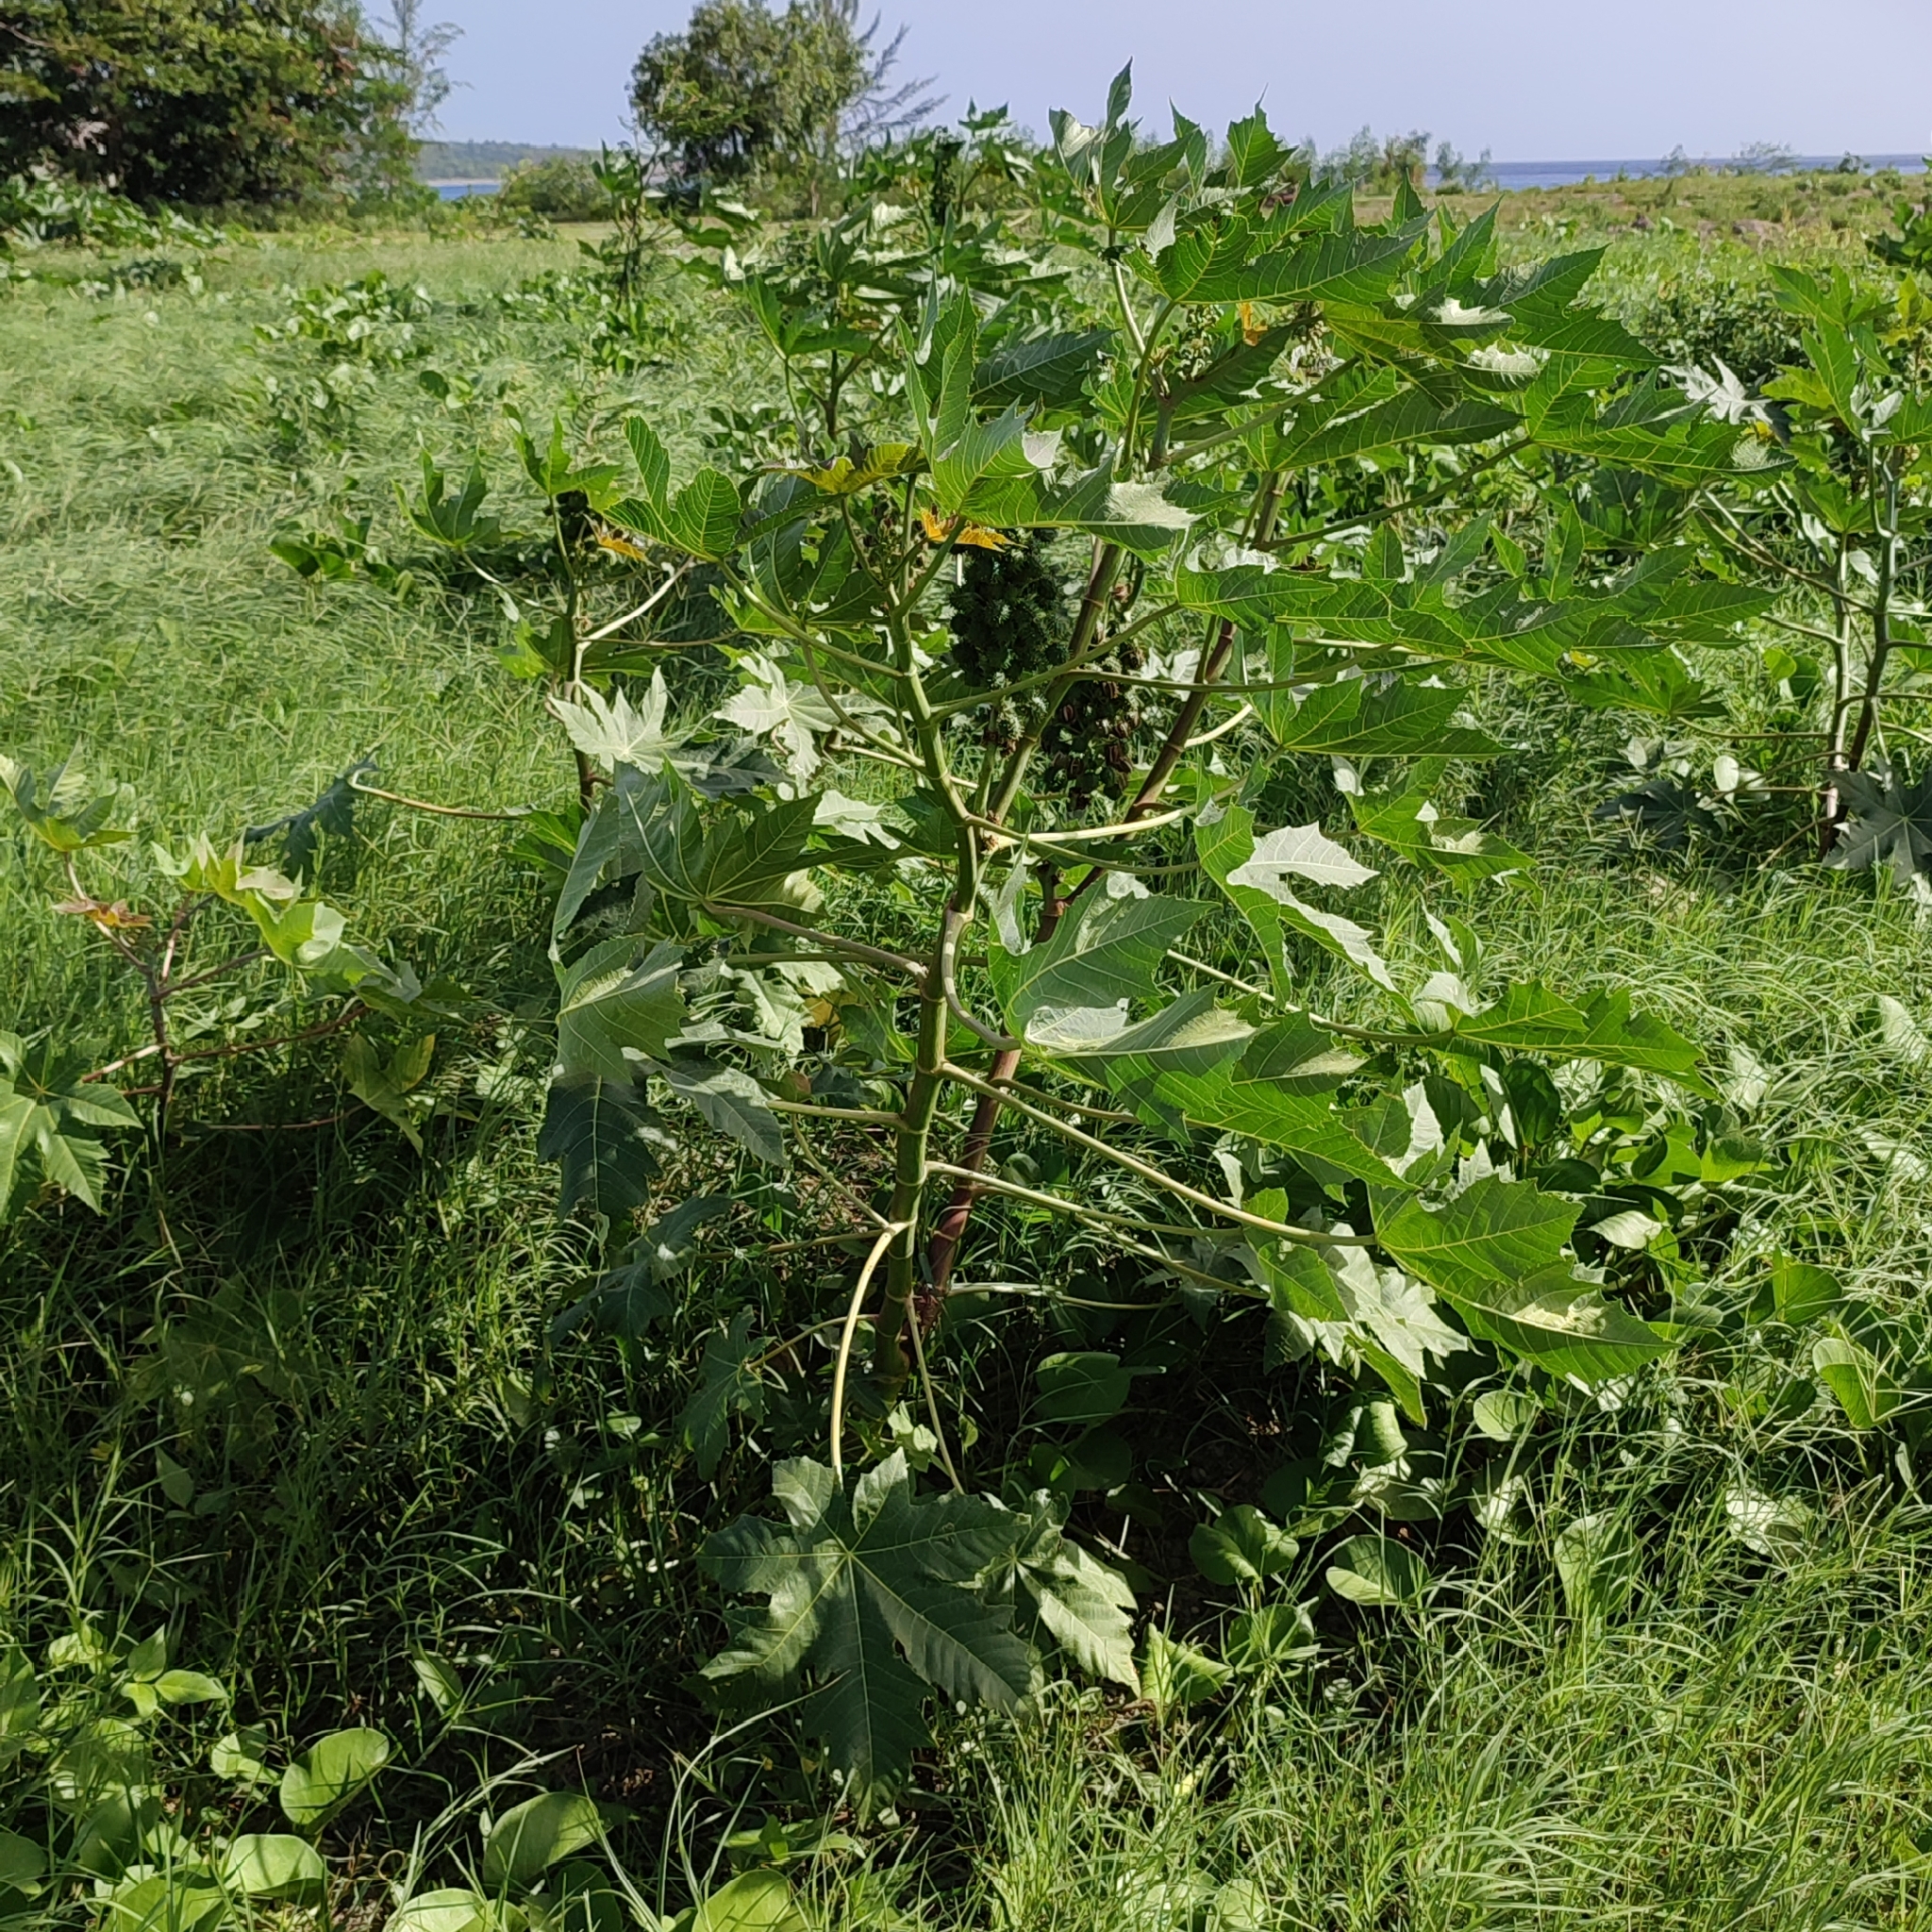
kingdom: Plantae
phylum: Tracheophyta
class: Magnoliopsida
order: Malpighiales
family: Euphorbiaceae
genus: Ricinus
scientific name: Ricinus communis
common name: Castor-oil-plant
